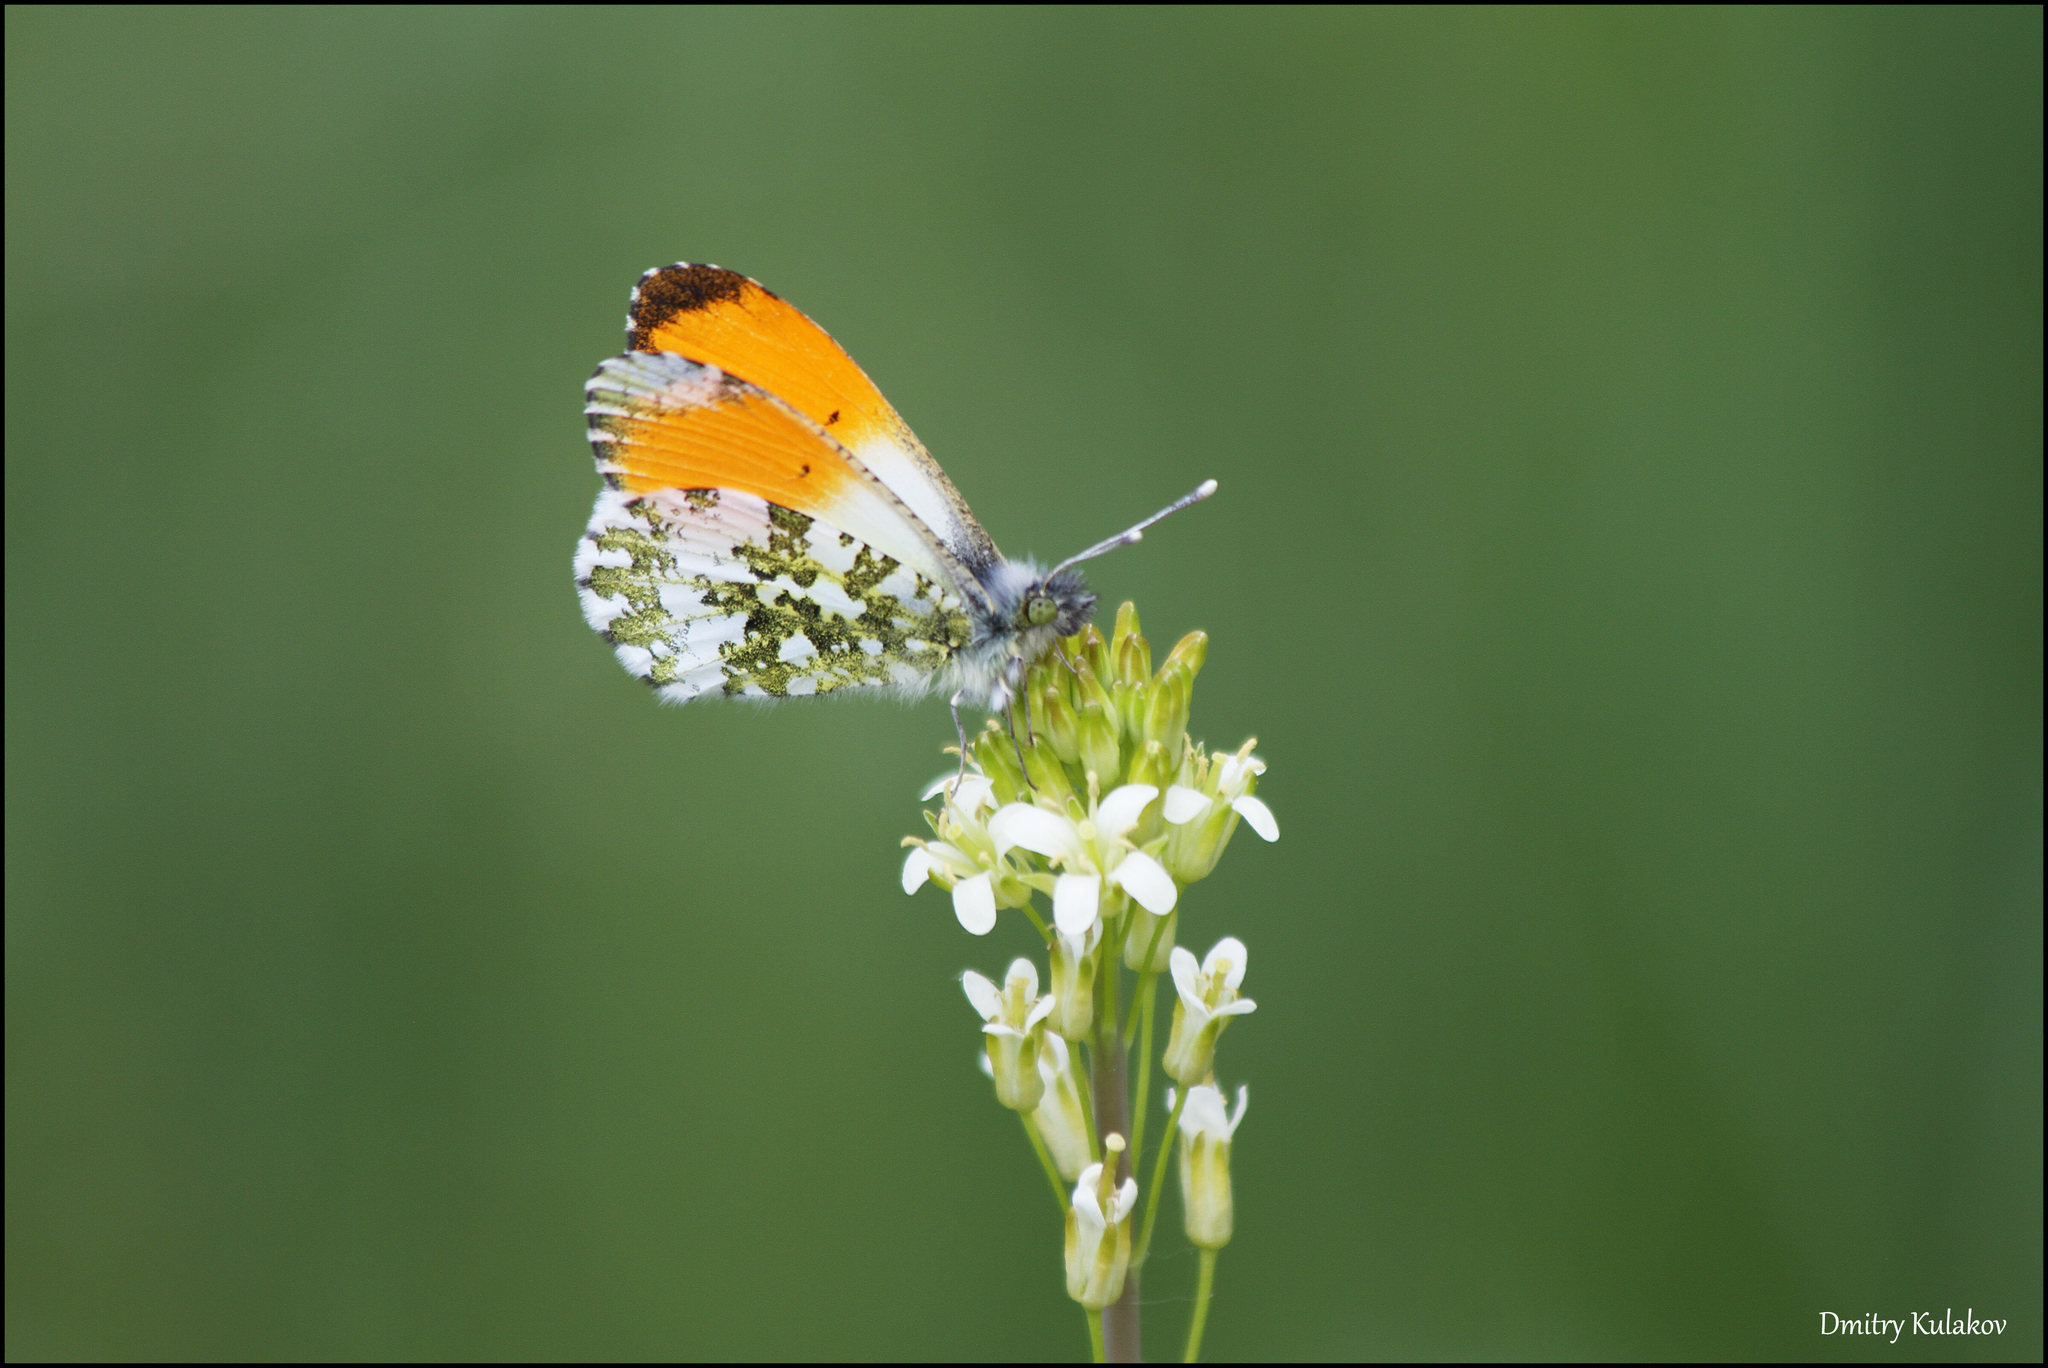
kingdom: Animalia
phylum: Arthropoda
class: Insecta
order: Lepidoptera
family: Pieridae
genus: Anthocharis
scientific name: Anthocharis cardamines
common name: Orange-tip
